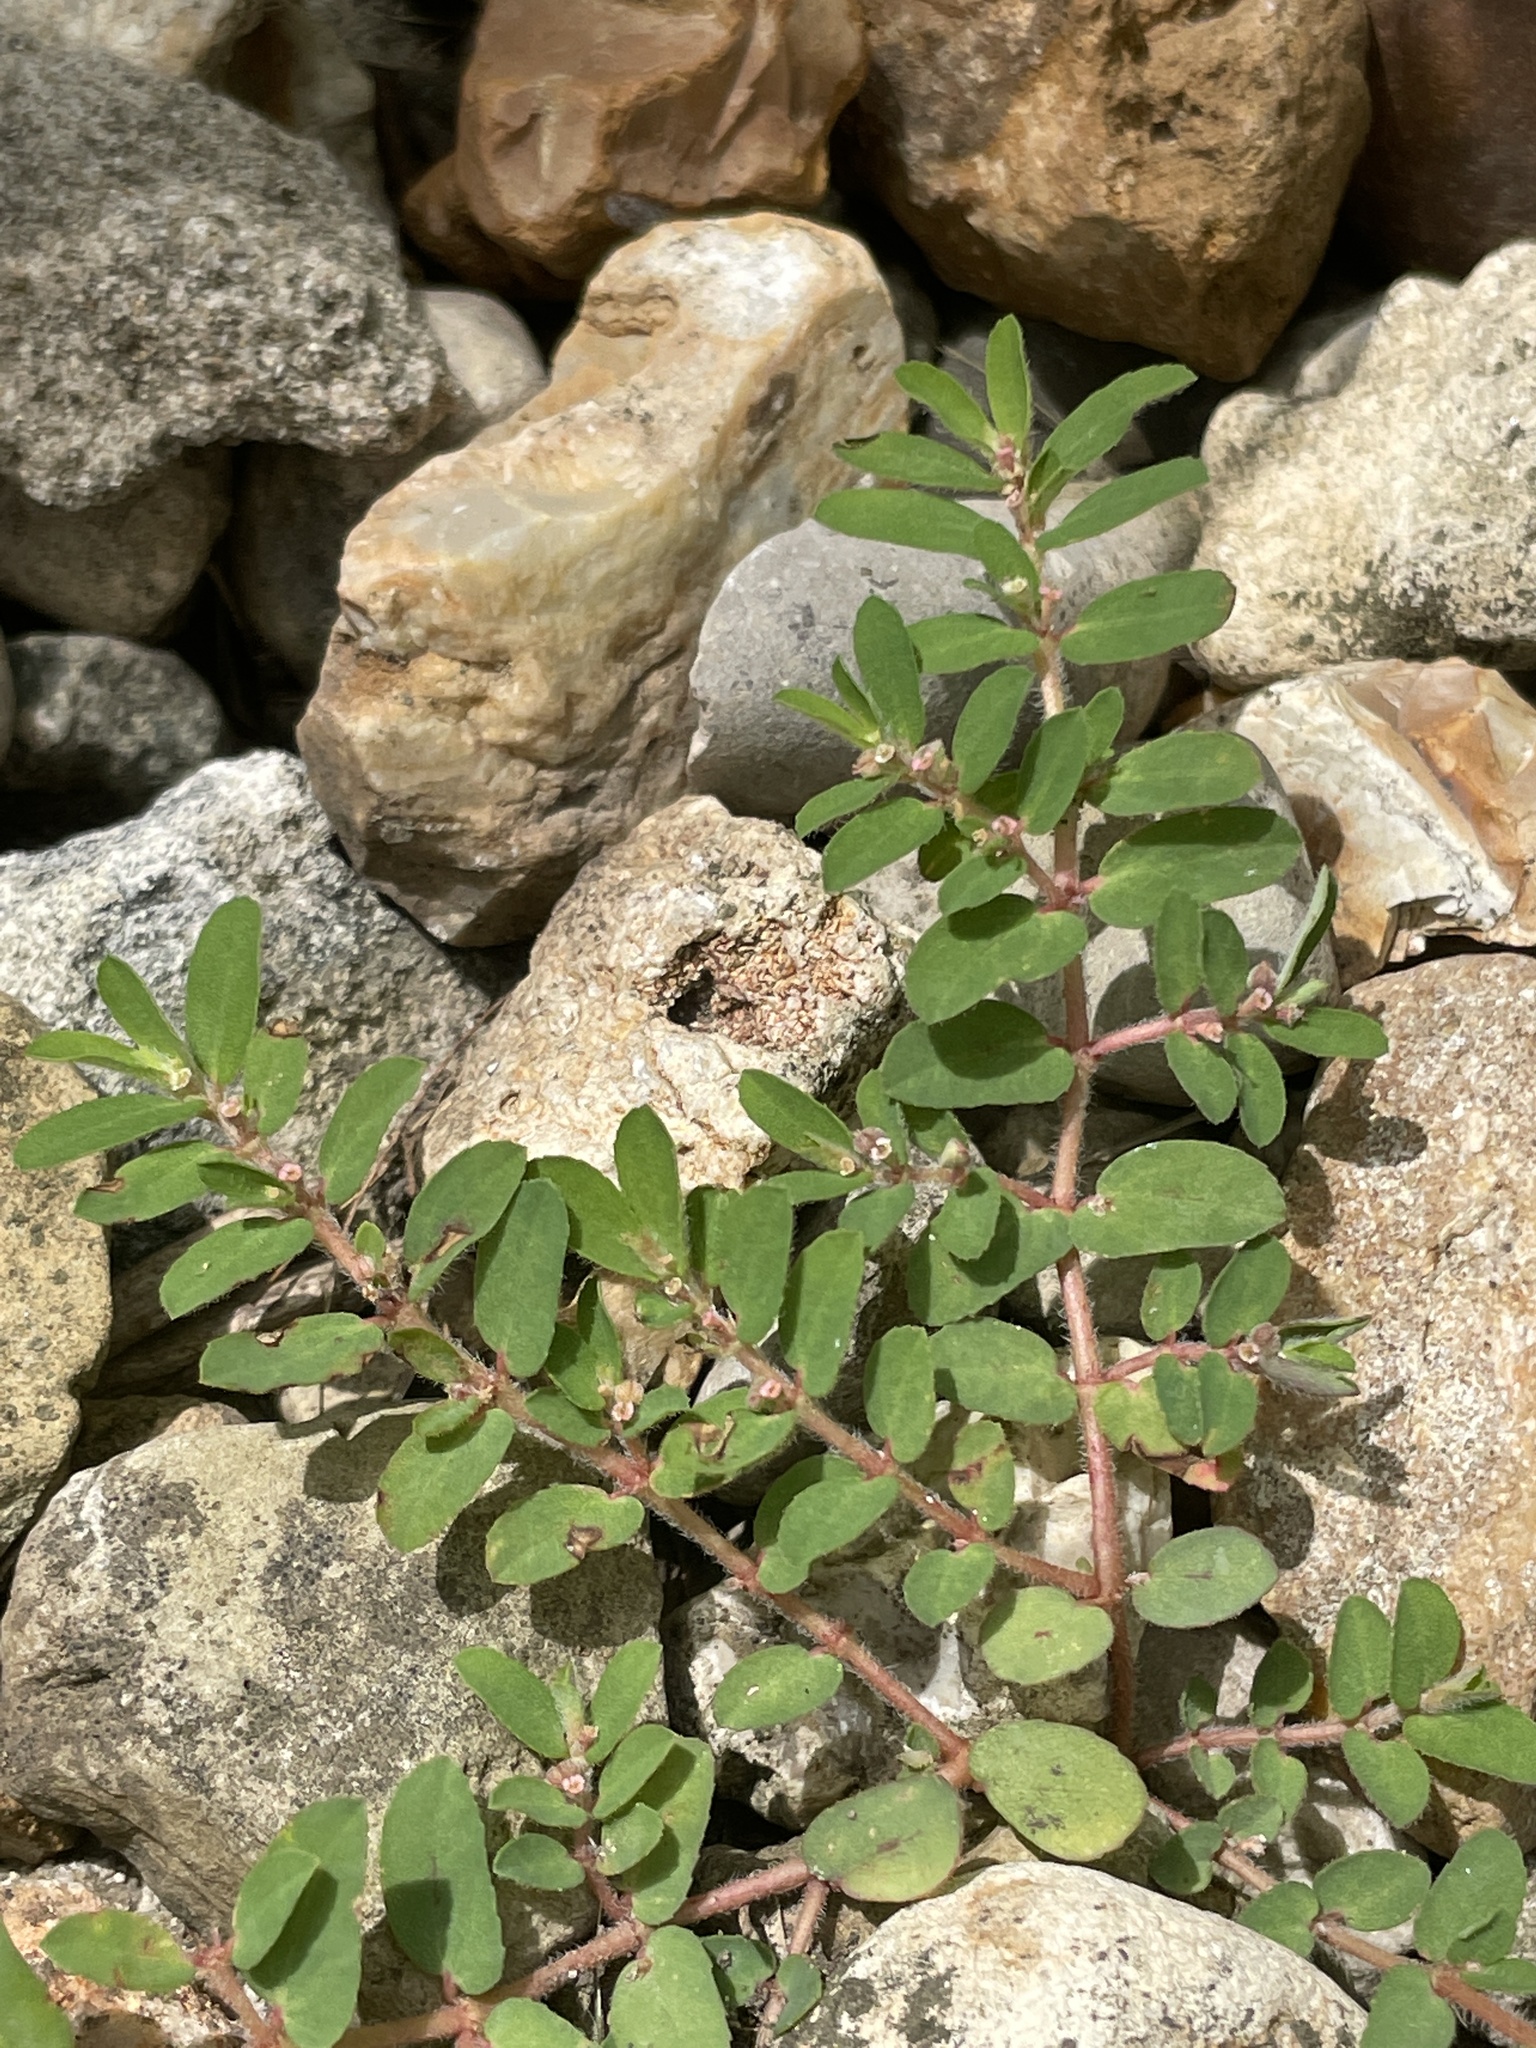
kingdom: Plantae
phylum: Tracheophyta
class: Magnoliopsida
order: Malpighiales
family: Euphorbiaceae
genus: Euphorbia
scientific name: Euphorbia maculata
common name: Spotted spurge
